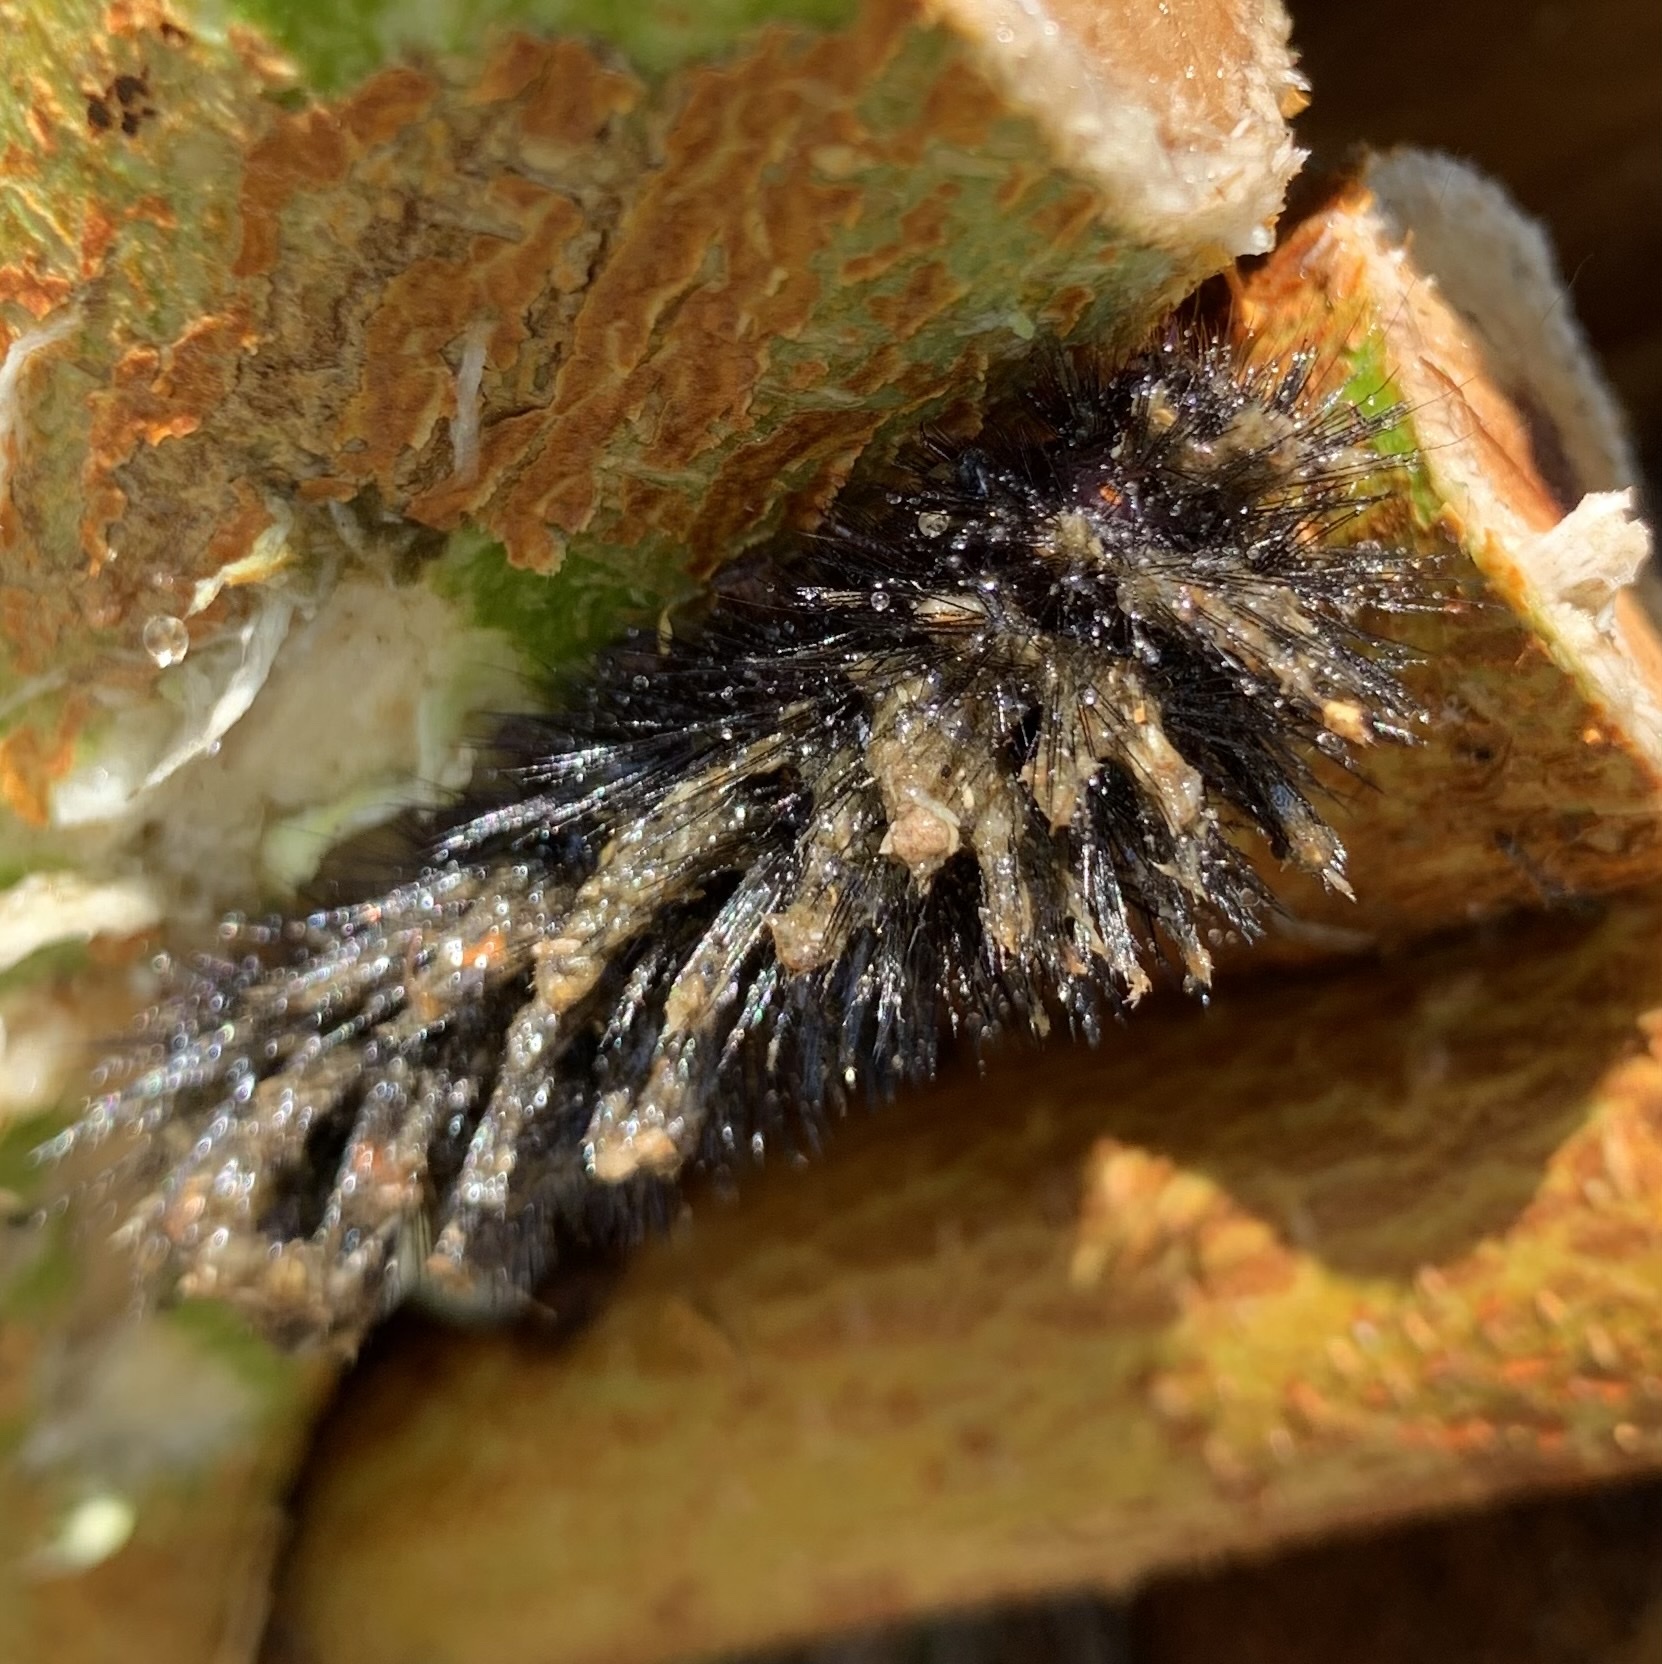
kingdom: Animalia
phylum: Arthropoda
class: Insecta
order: Lepidoptera
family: Erebidae
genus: Hypercompe
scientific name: Hypercompe scribonia
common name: Giant leopard moth
